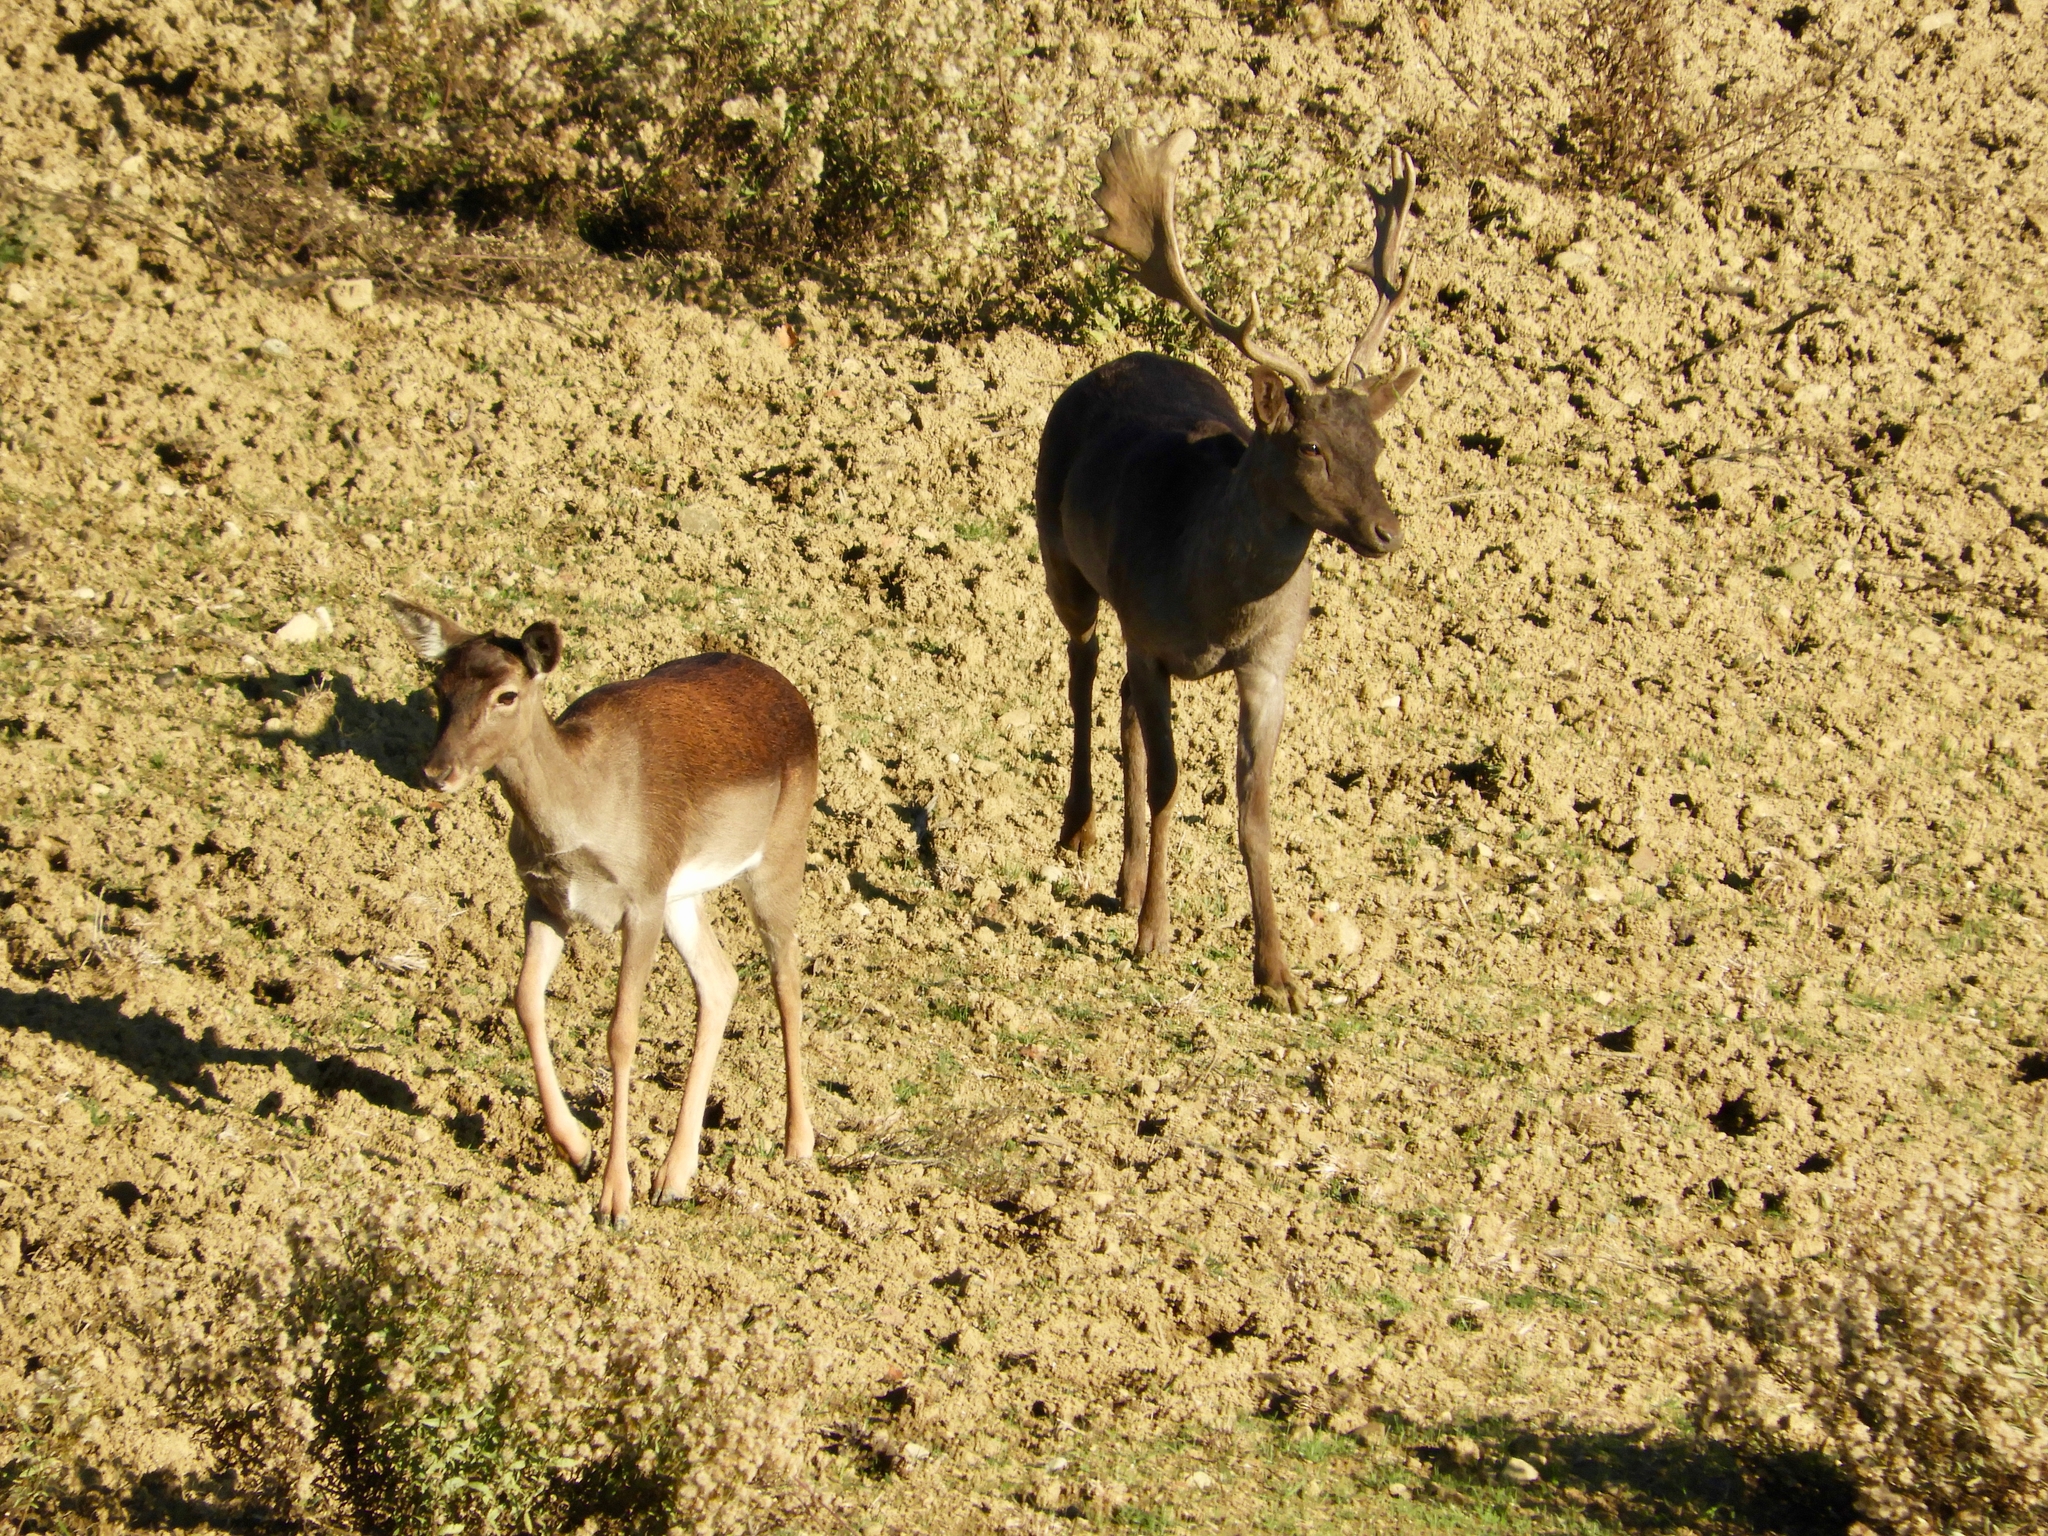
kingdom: Animalia
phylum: Chordata
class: Mammalia
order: Artiodactyla
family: Cervidae
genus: Dama
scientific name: Dama dama
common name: Fallow deer
